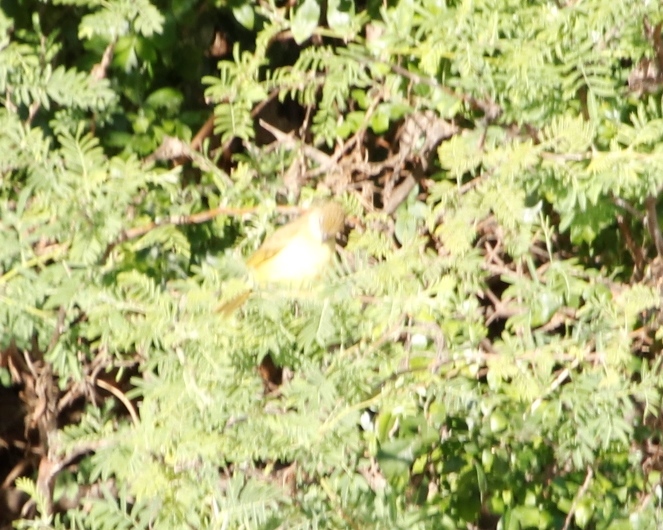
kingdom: Animalia
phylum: Chordata
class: Aves
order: Passeriformes
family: Pycnonotidae
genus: Chlorocichla
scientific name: Chlorocichla flaviventris
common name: Yellow-bellied greenbul
